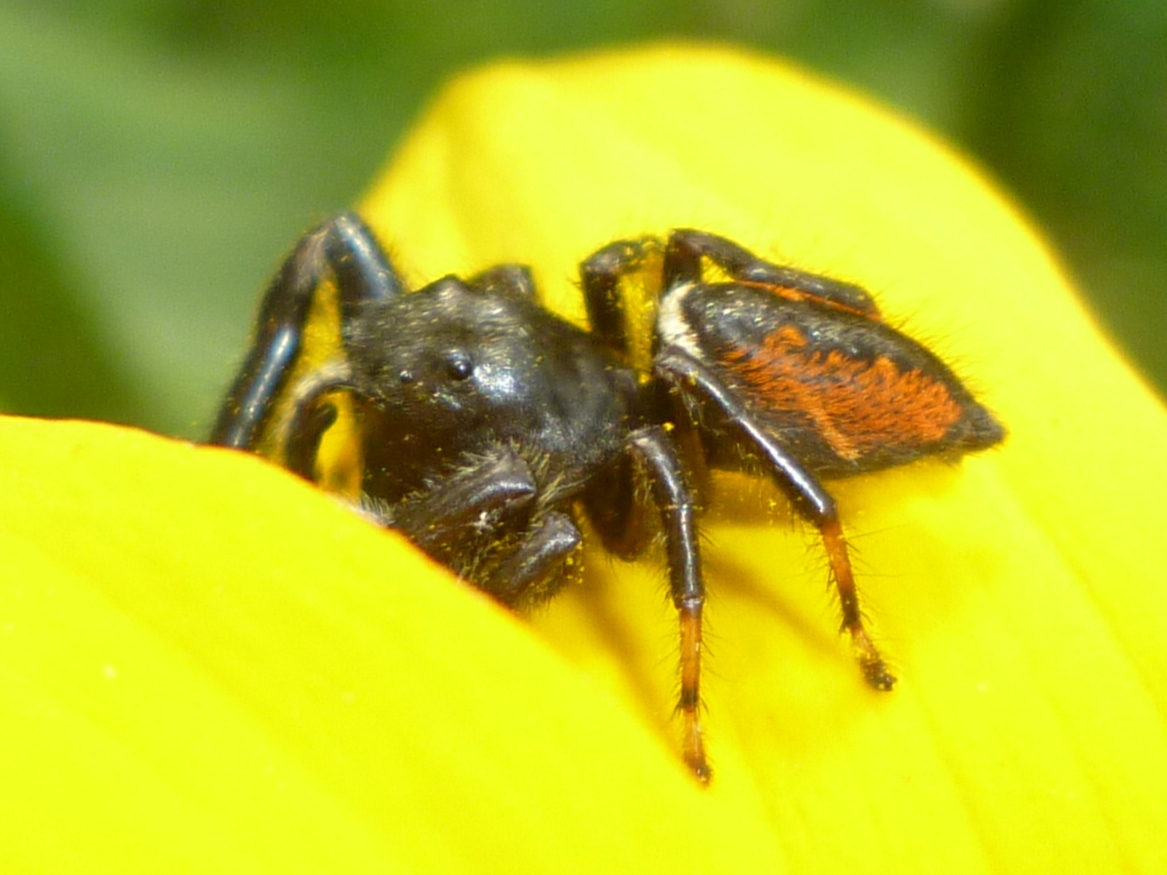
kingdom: Animalia
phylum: Arthropoda
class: Arachnida
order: Araneae
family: Salticidae
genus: Phidippus
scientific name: Phidippus clarus
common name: Brilliant jumping spider
